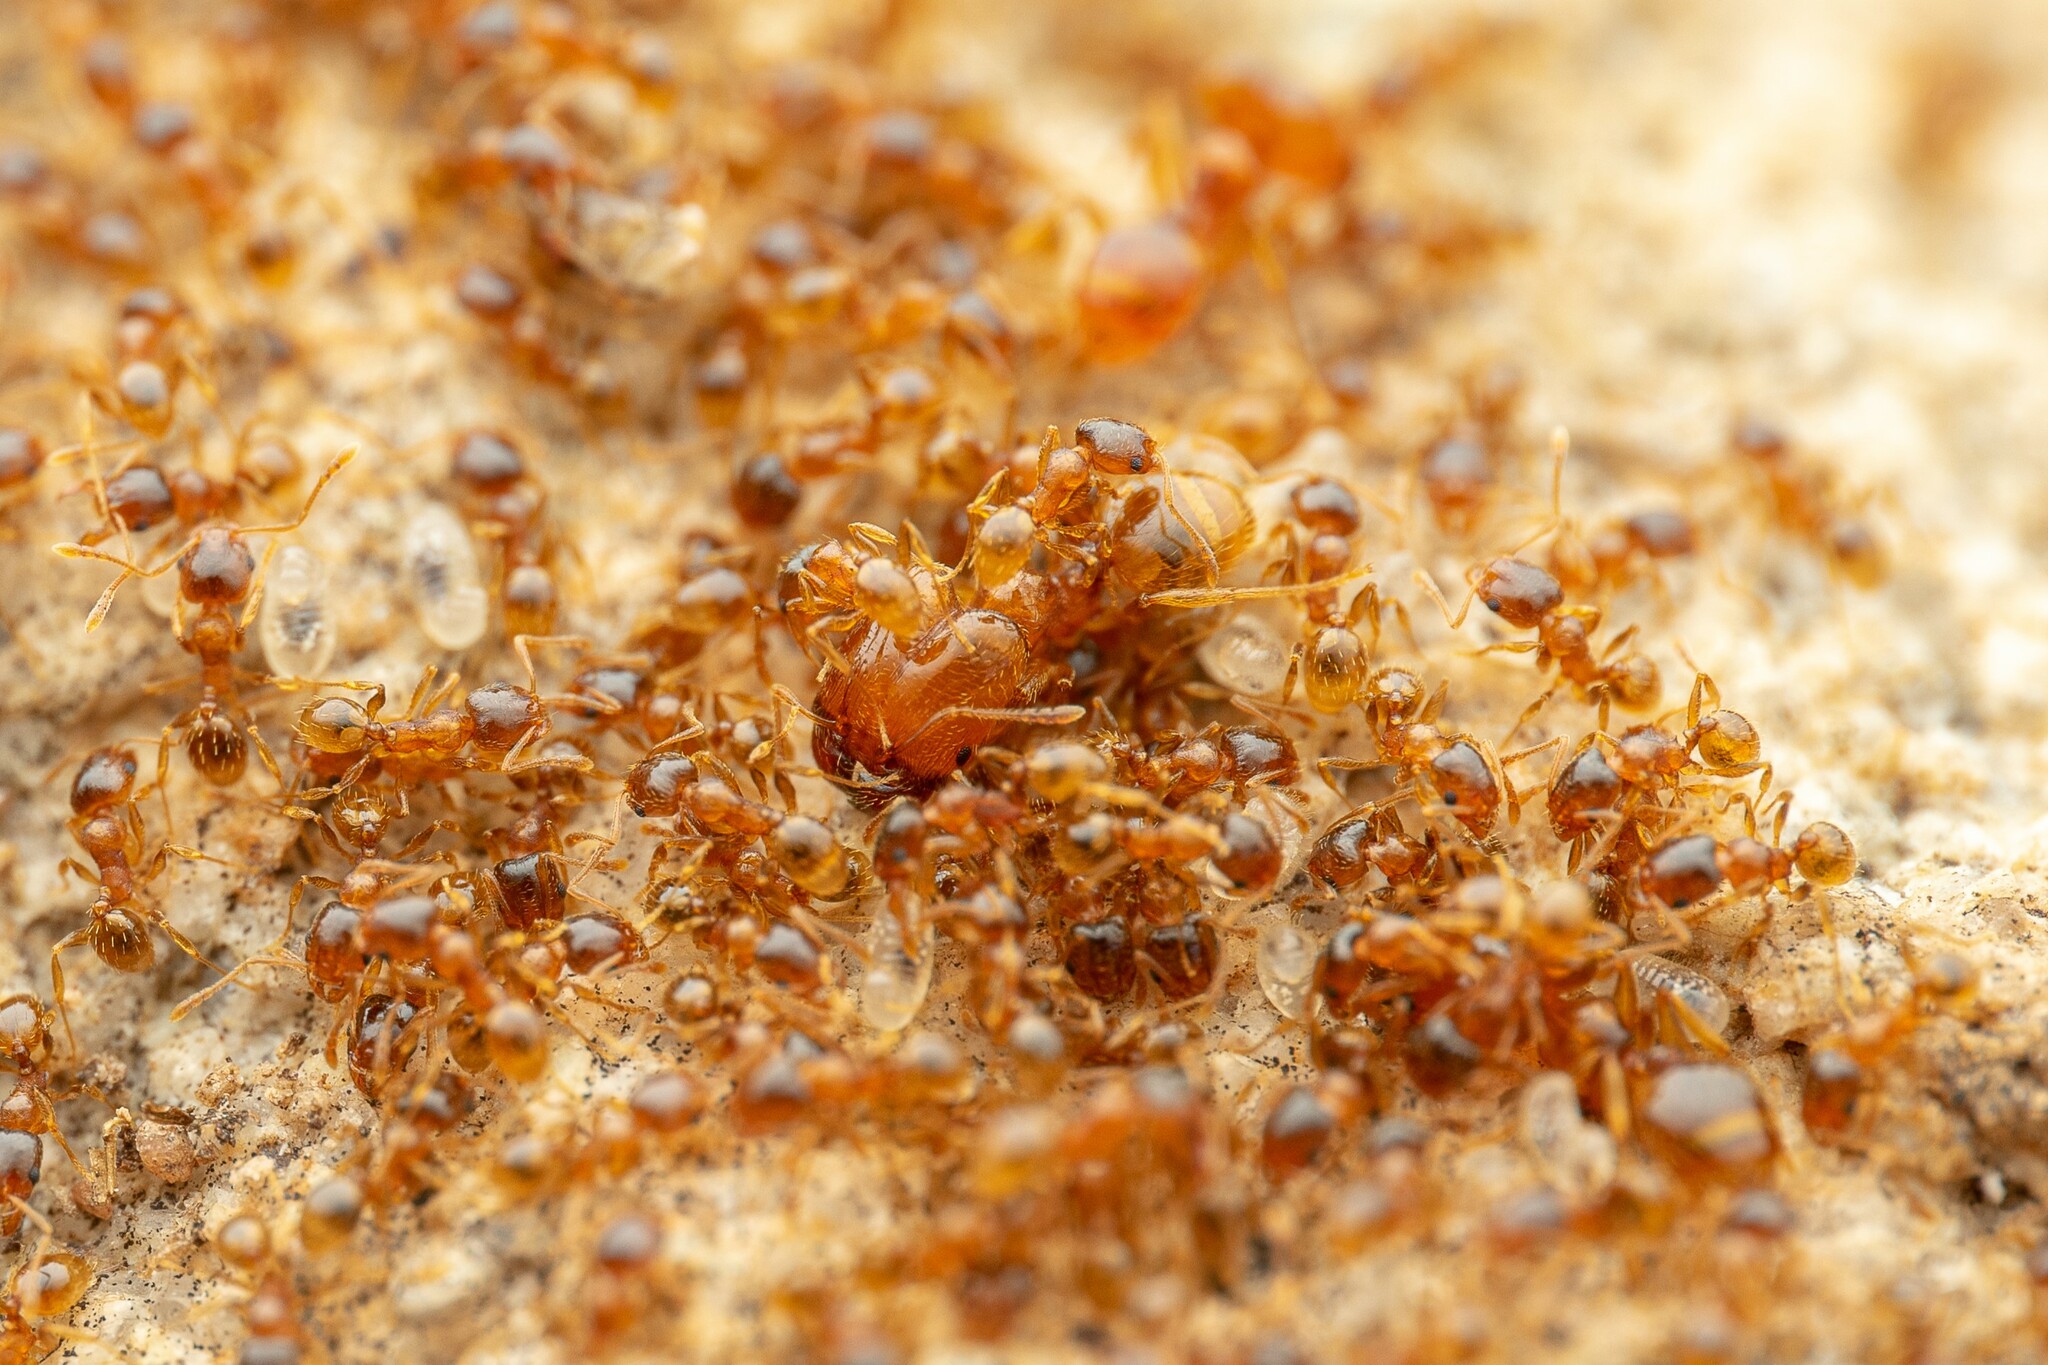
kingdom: Animalia
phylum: Arthropoda
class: Insecta
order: Hymenoptera
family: Formicidae
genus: Pheidole
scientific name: Pheidole cerebrosior
